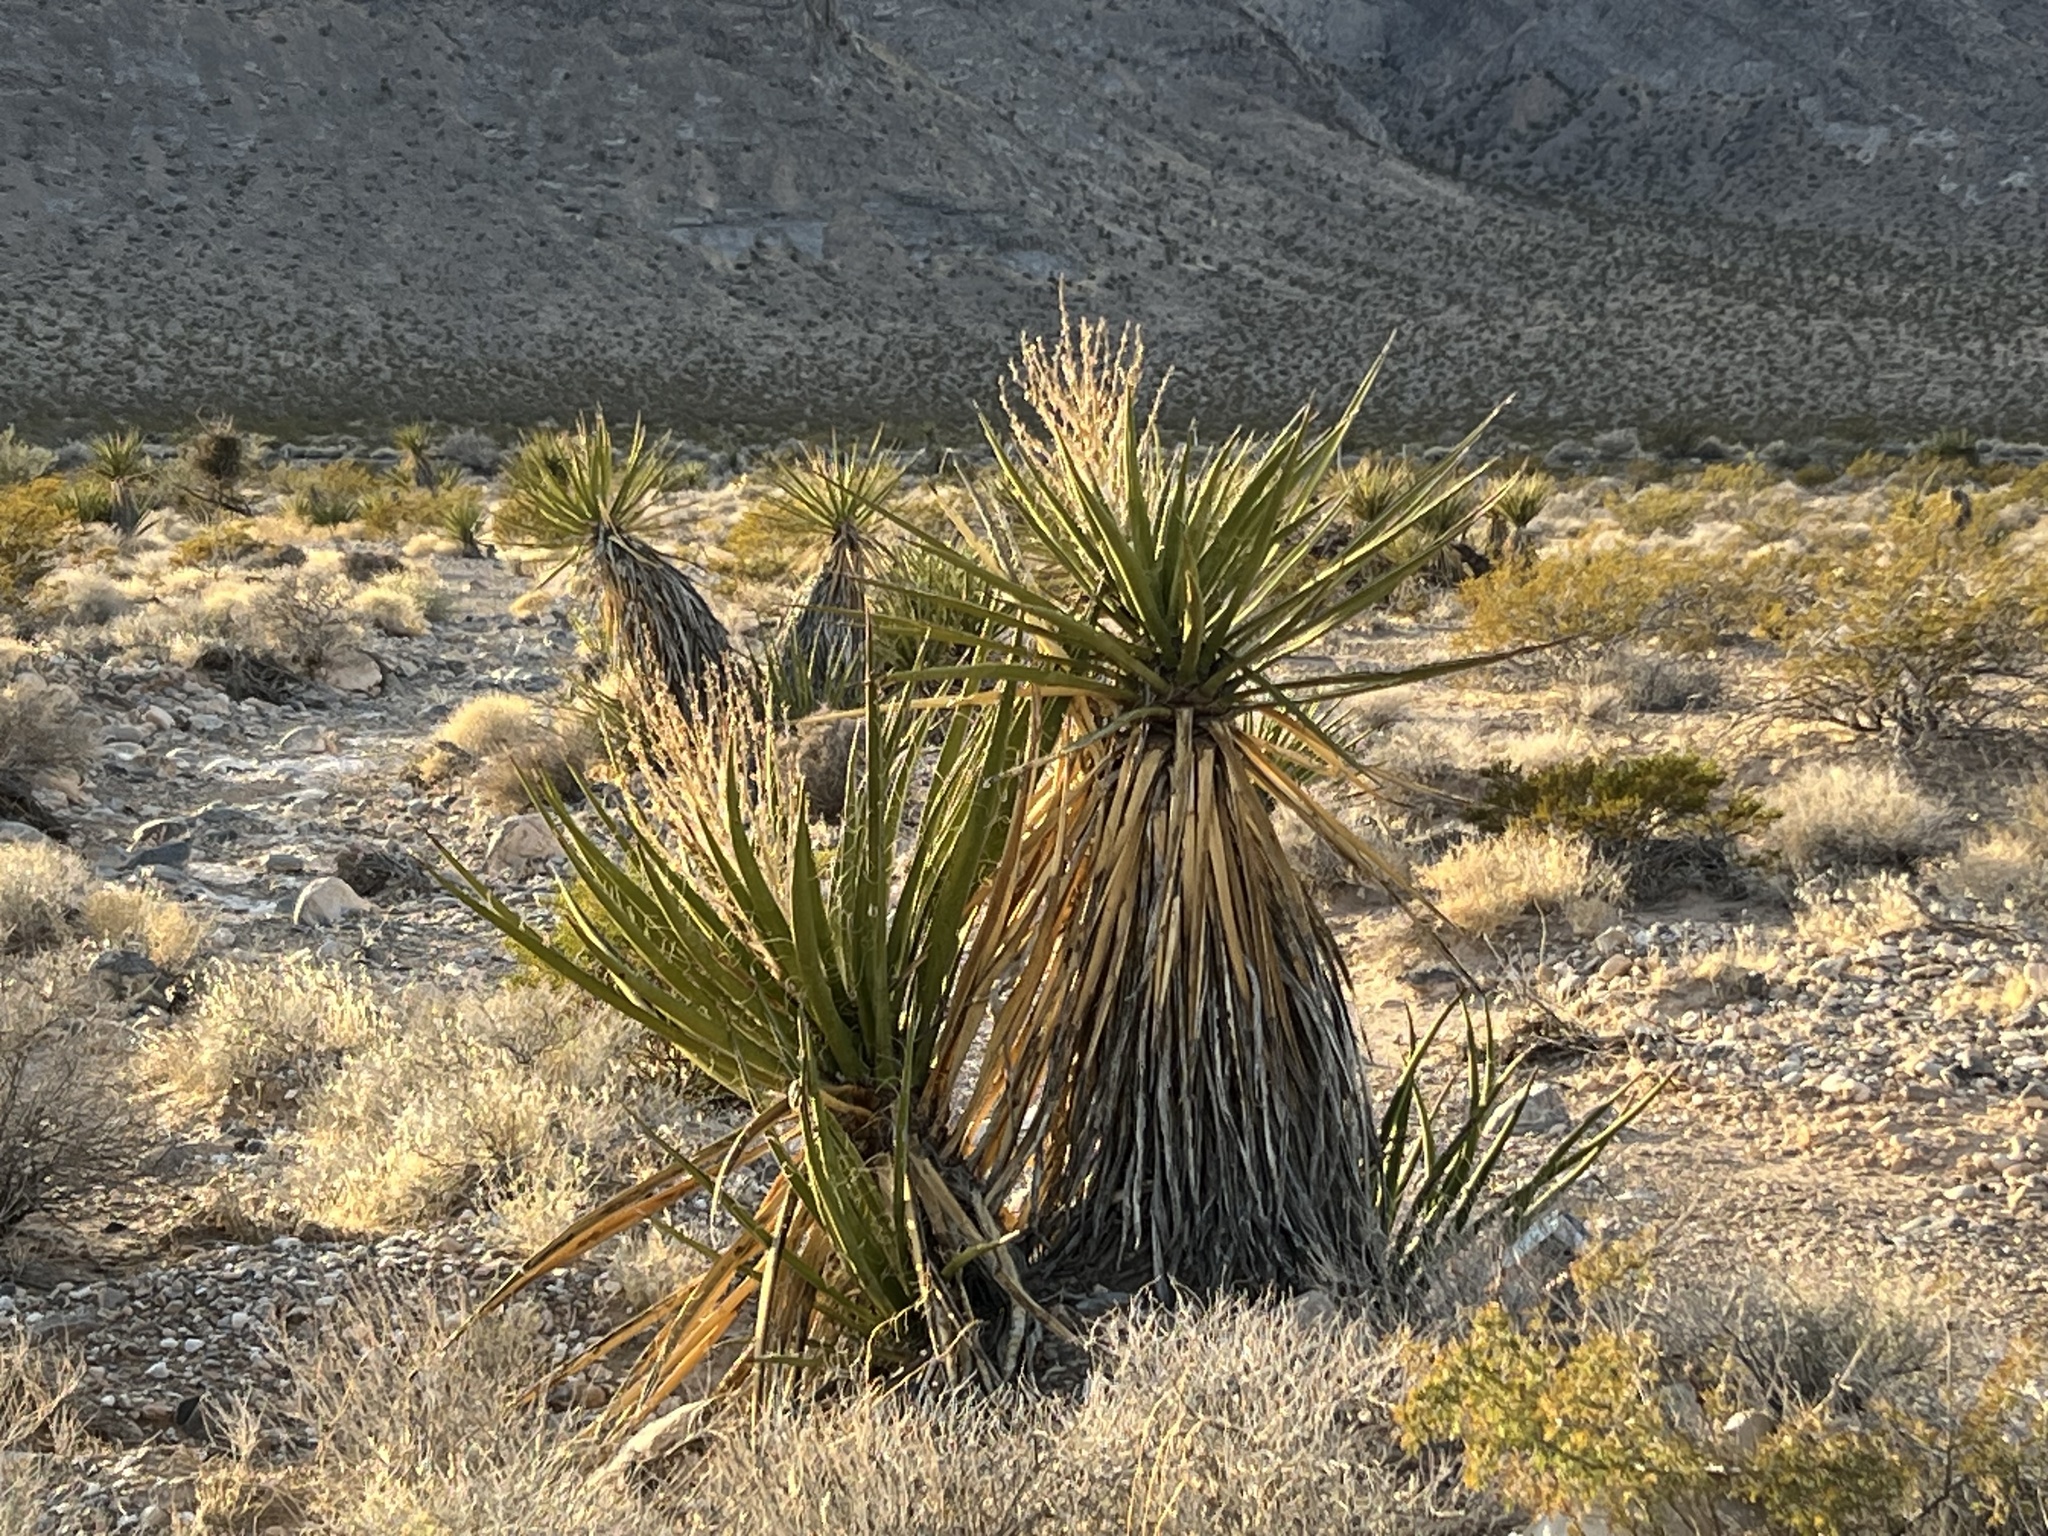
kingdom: Plantae
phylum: Tracheophyta
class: Liliopsida
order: Asparagales
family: Asparagaceae
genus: Yucca
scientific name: Yucca schidigera
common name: Mojave yucca
